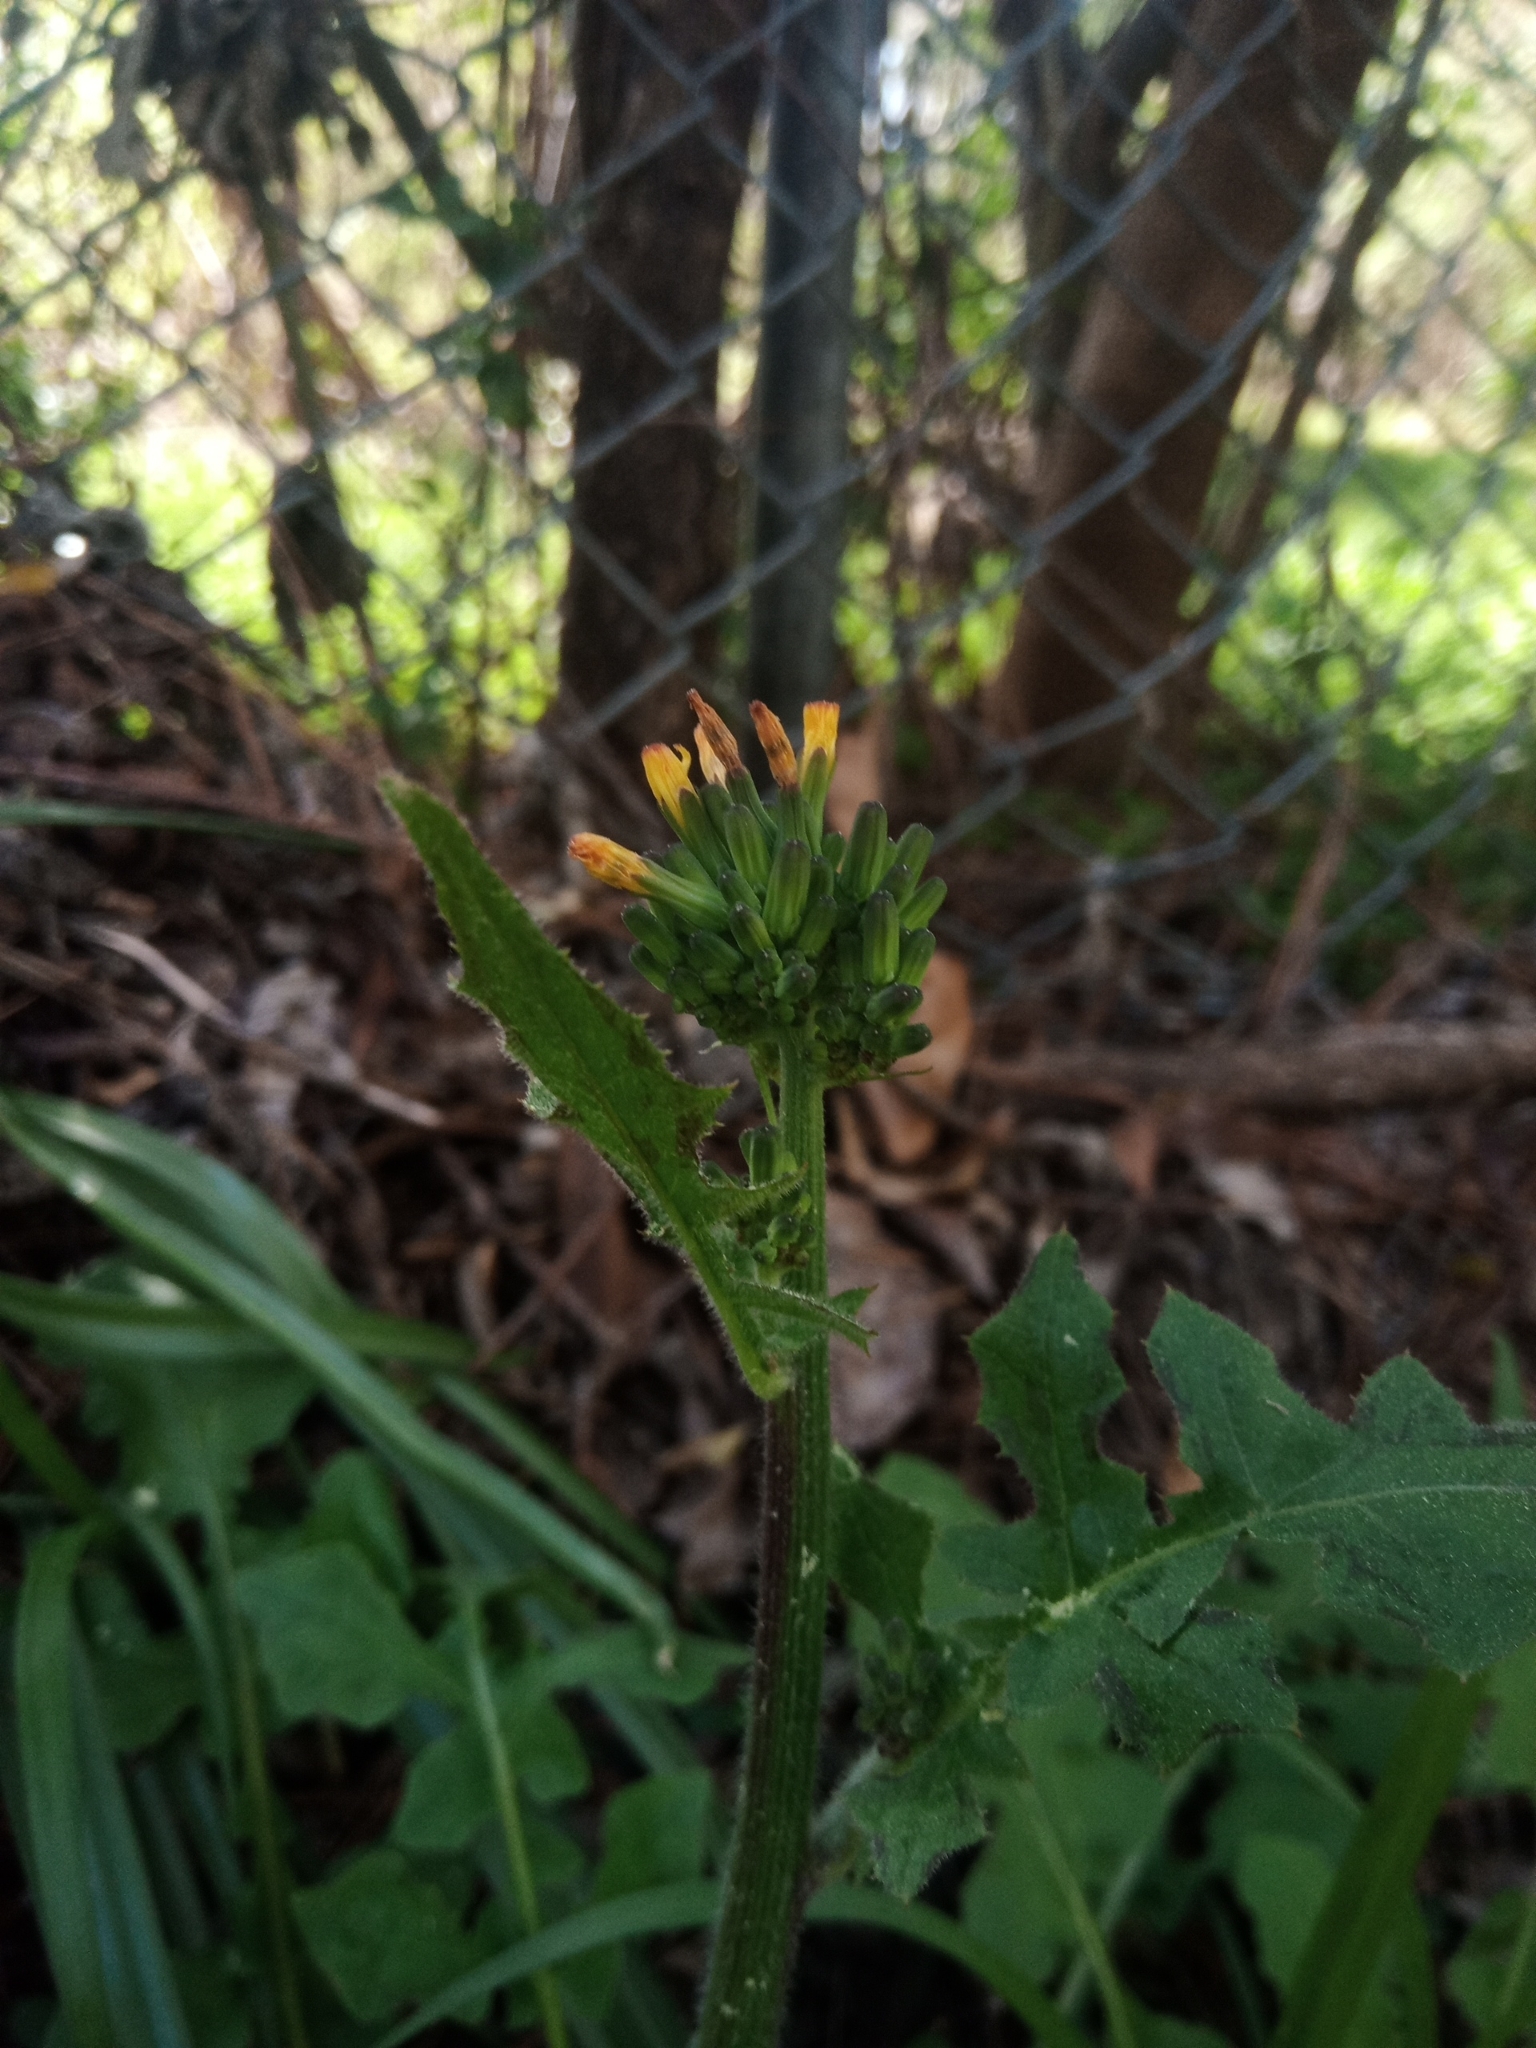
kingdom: Plantae
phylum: Tracheophyta
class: Magnoliopsida
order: Asterales
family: Asteraceae
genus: Youngia
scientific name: Youngia japonica
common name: Oriental false hawksbeard
